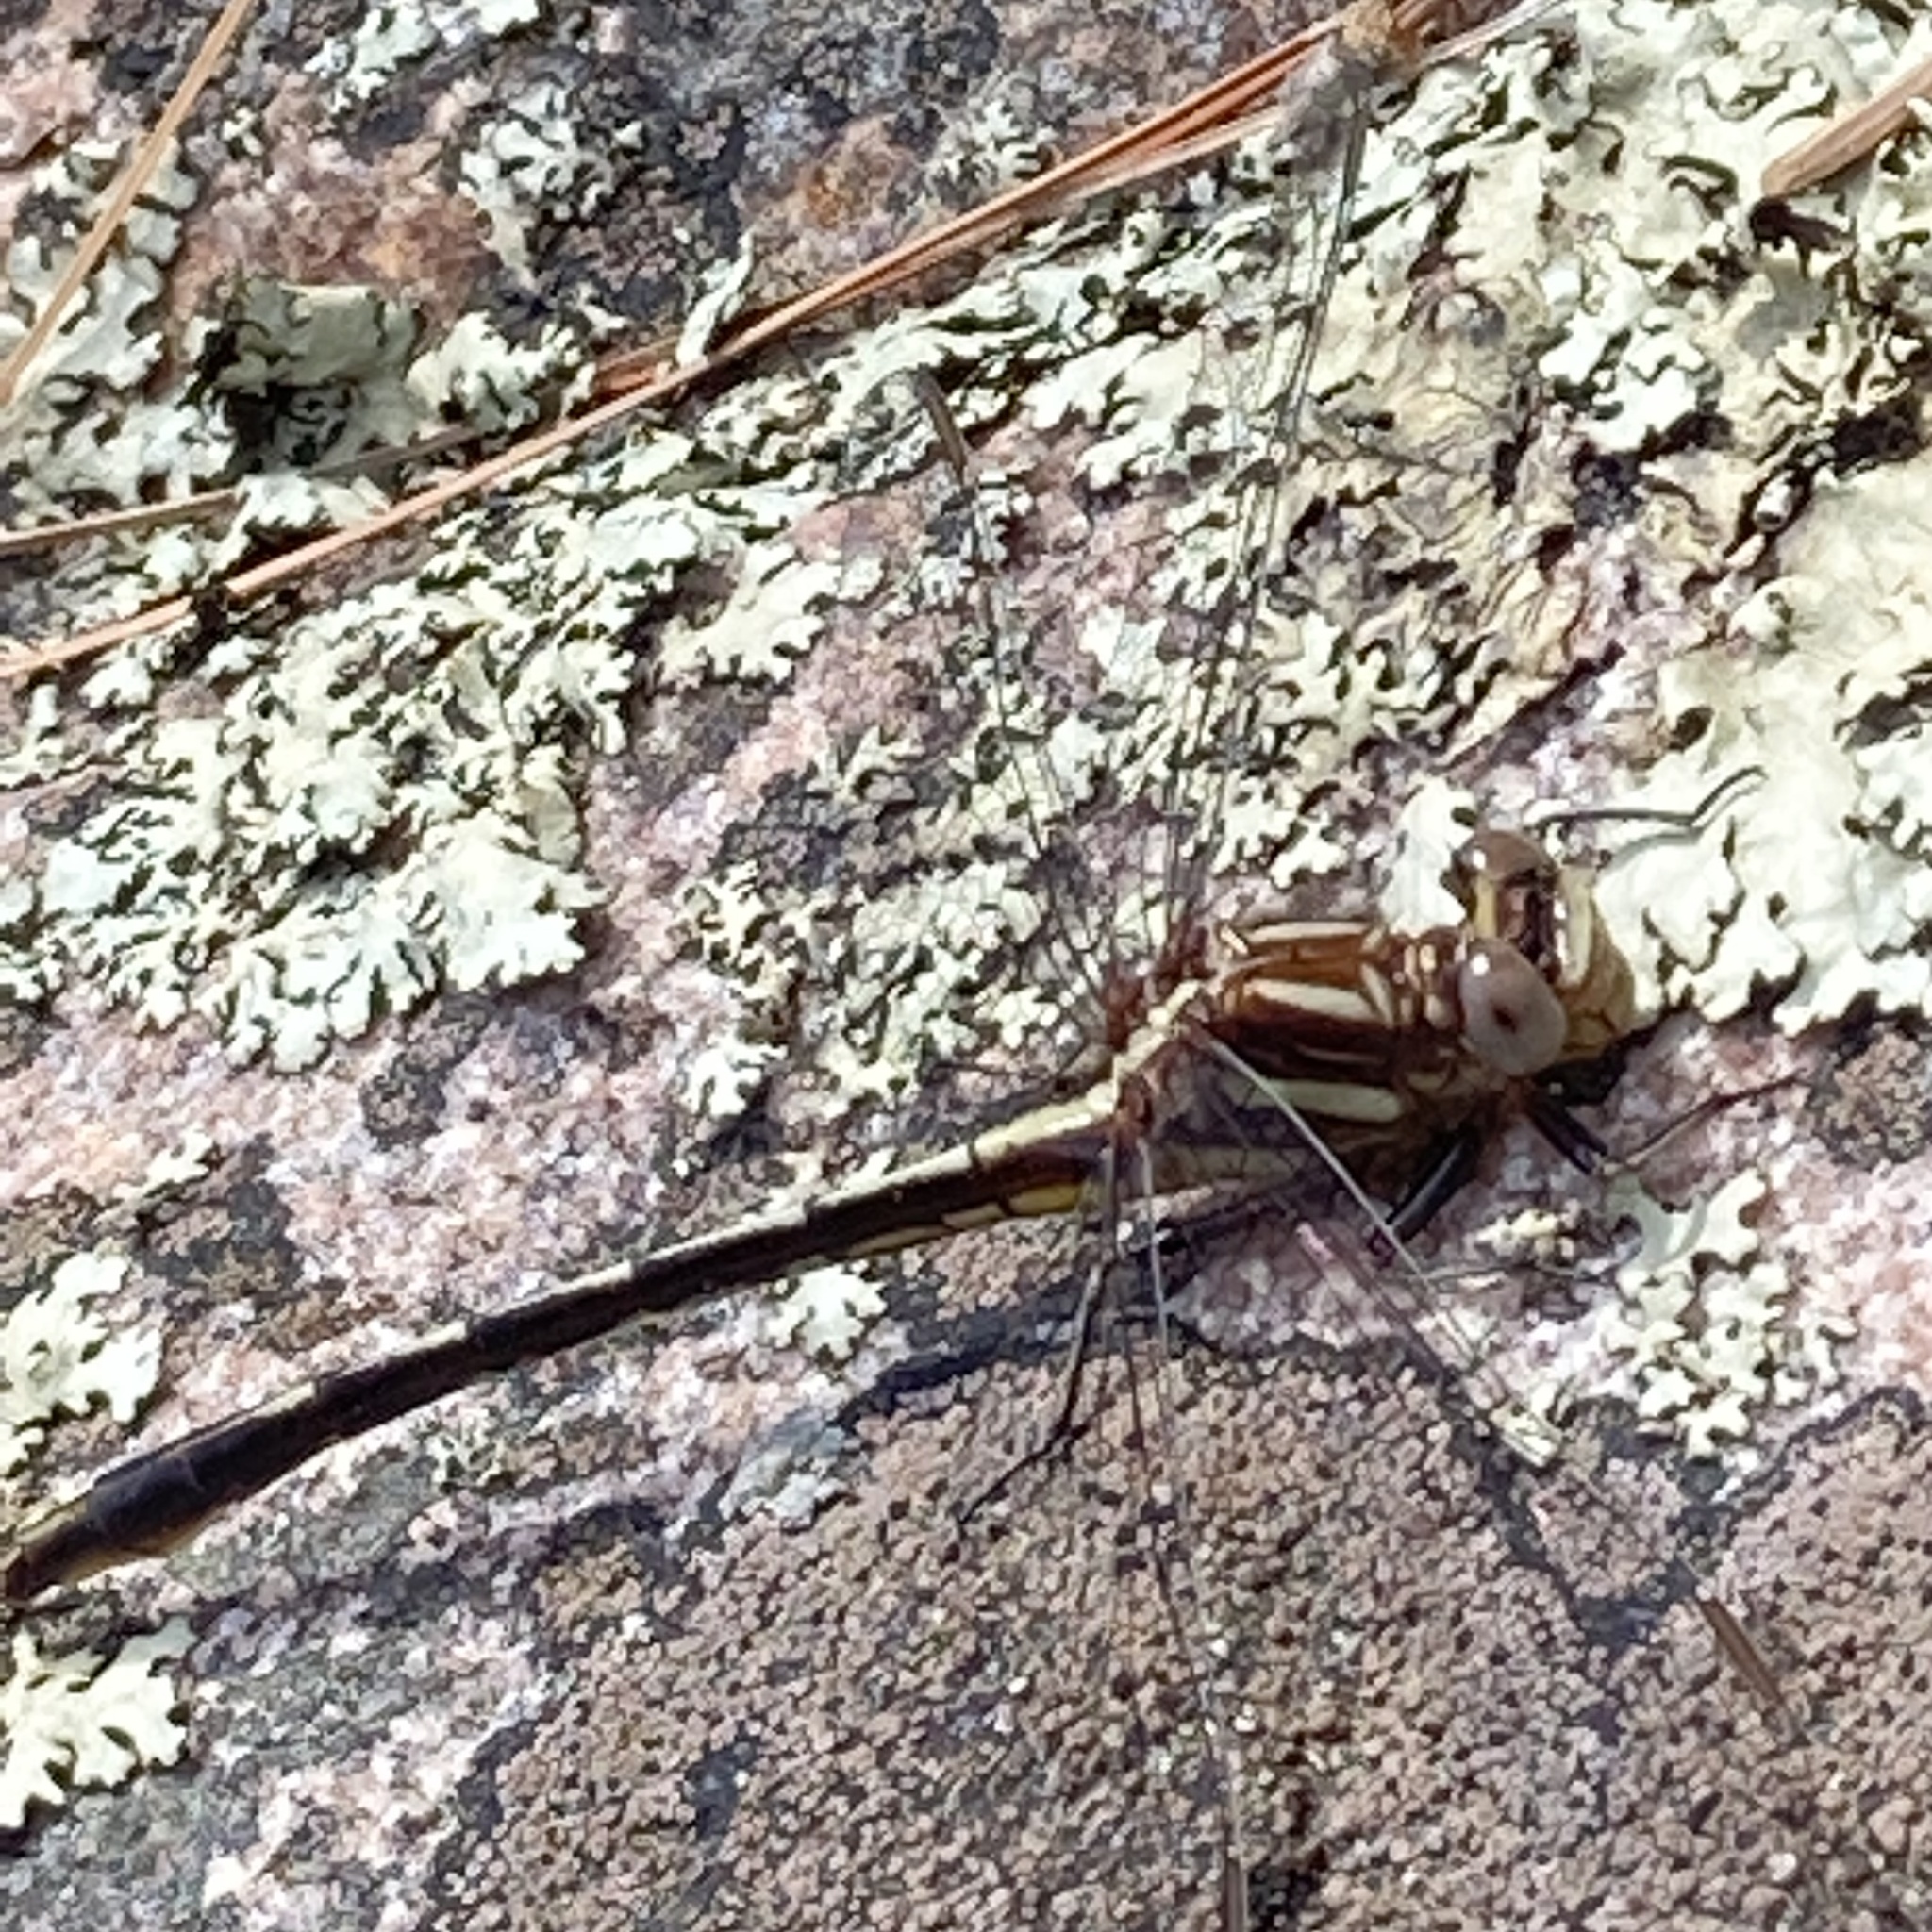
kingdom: Animalia
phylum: Arthropoda
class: Insecta
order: Odonata
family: Gomphidae
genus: Phanogomphus
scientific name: Phanogomphus exilis
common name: Lancet clubtail
